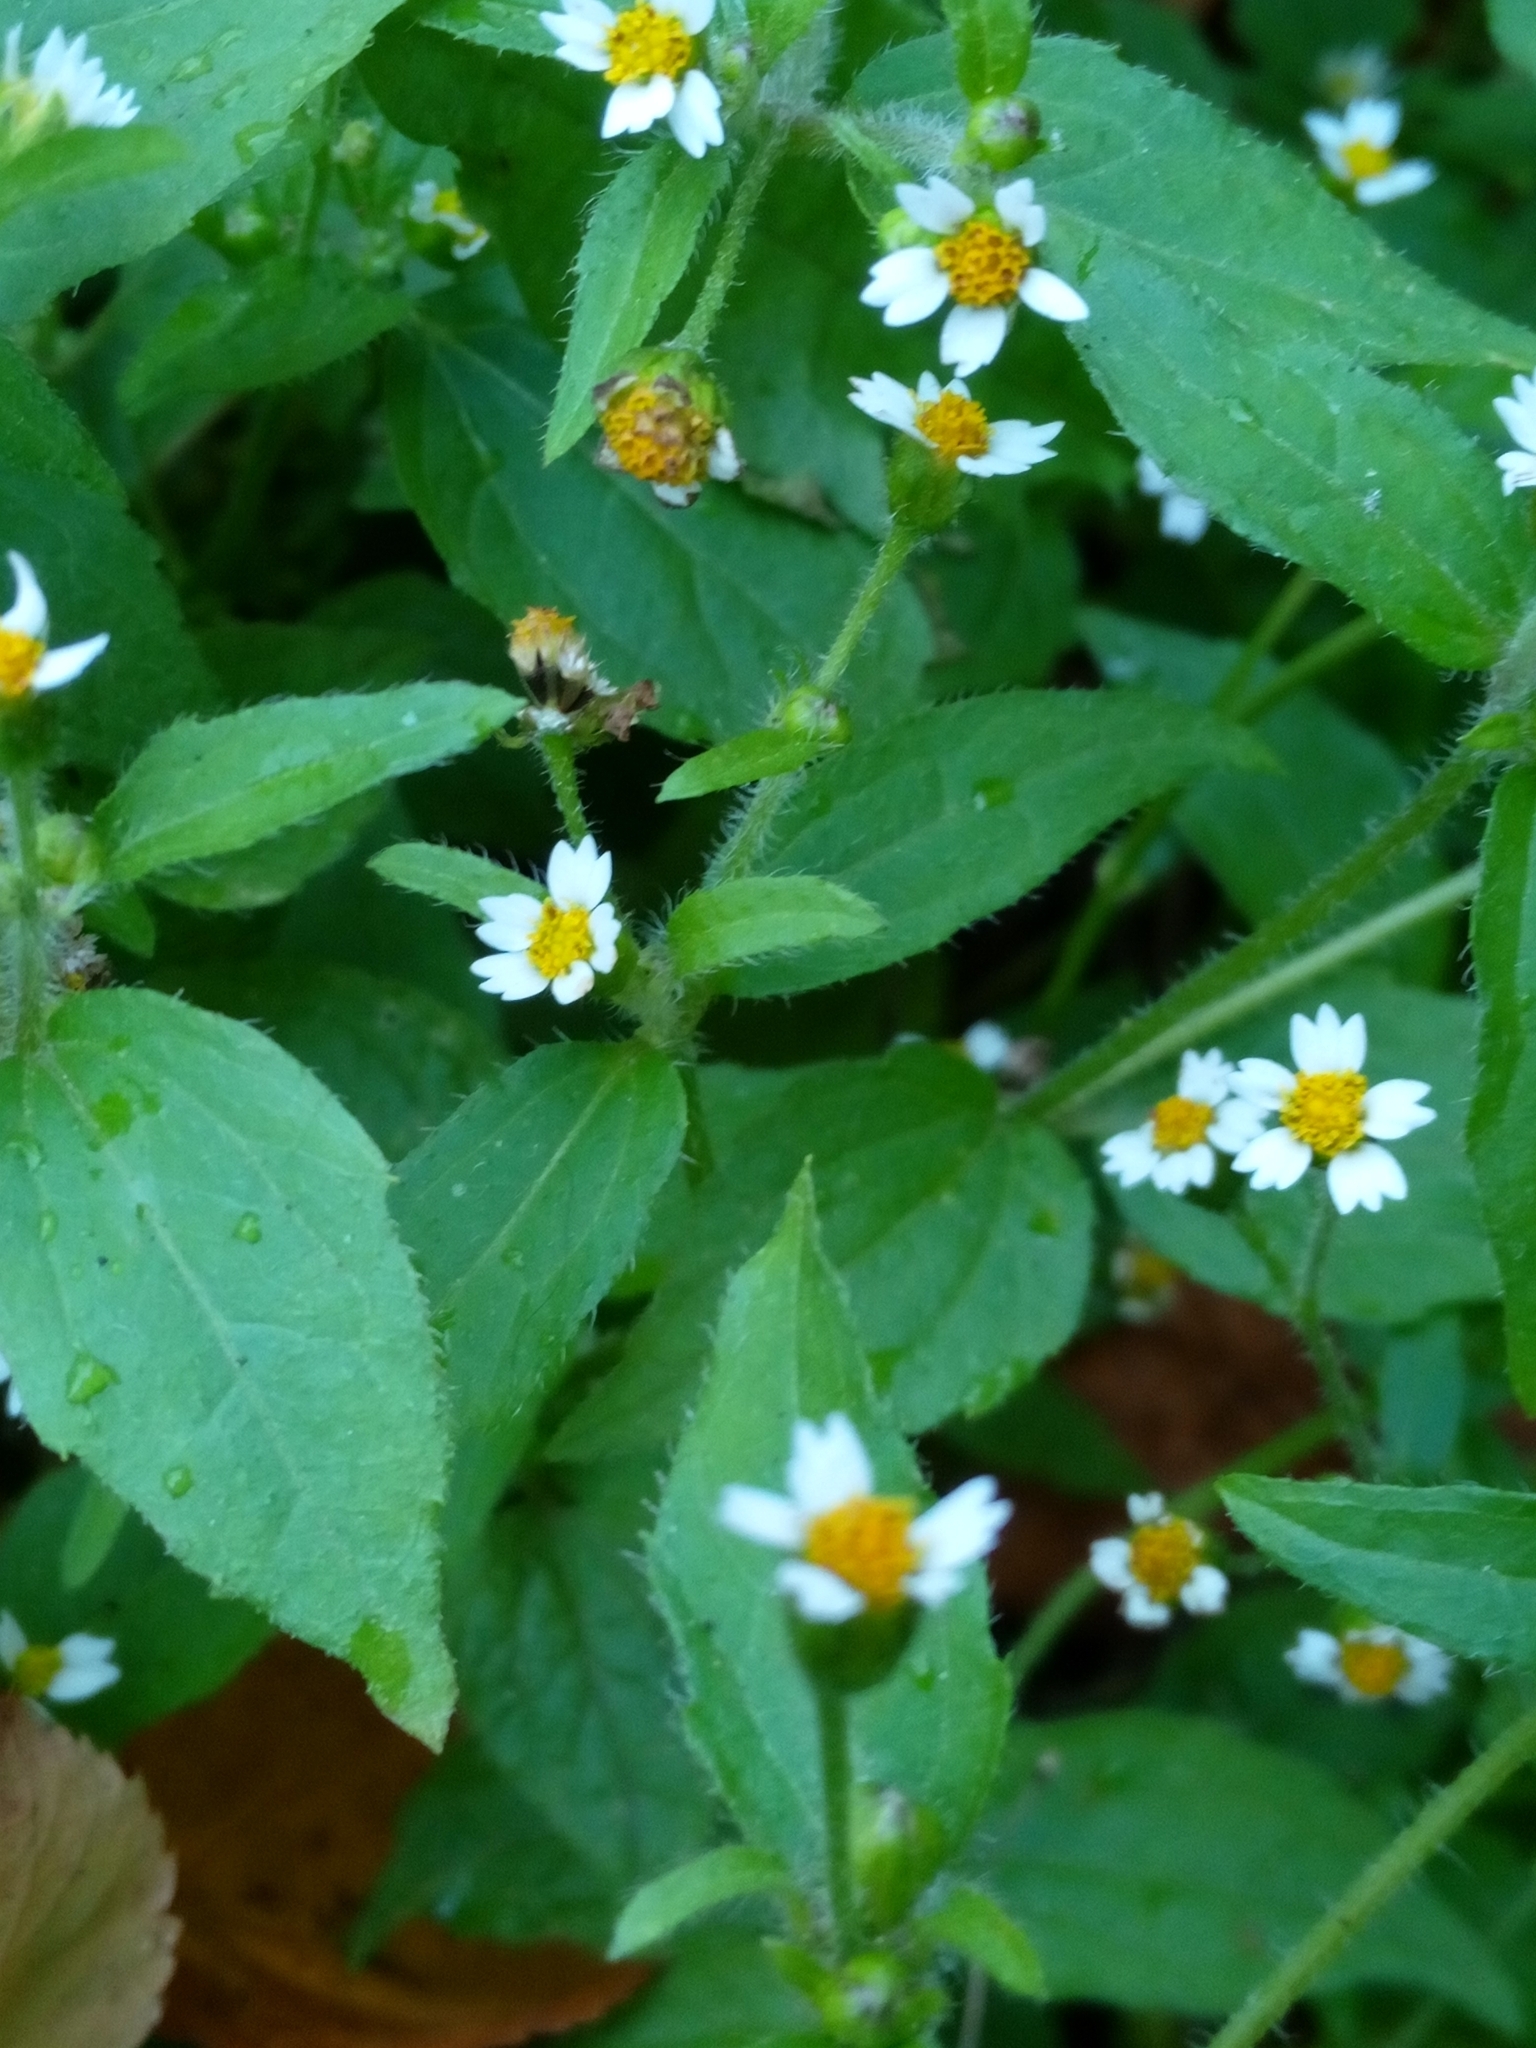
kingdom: Plantae
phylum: Tracheophyta
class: Magnoliopsida
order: Asterales
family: Asteraceae
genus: Galinsoga
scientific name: Galinsoga quadriradiata
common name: Shaggy soldier
